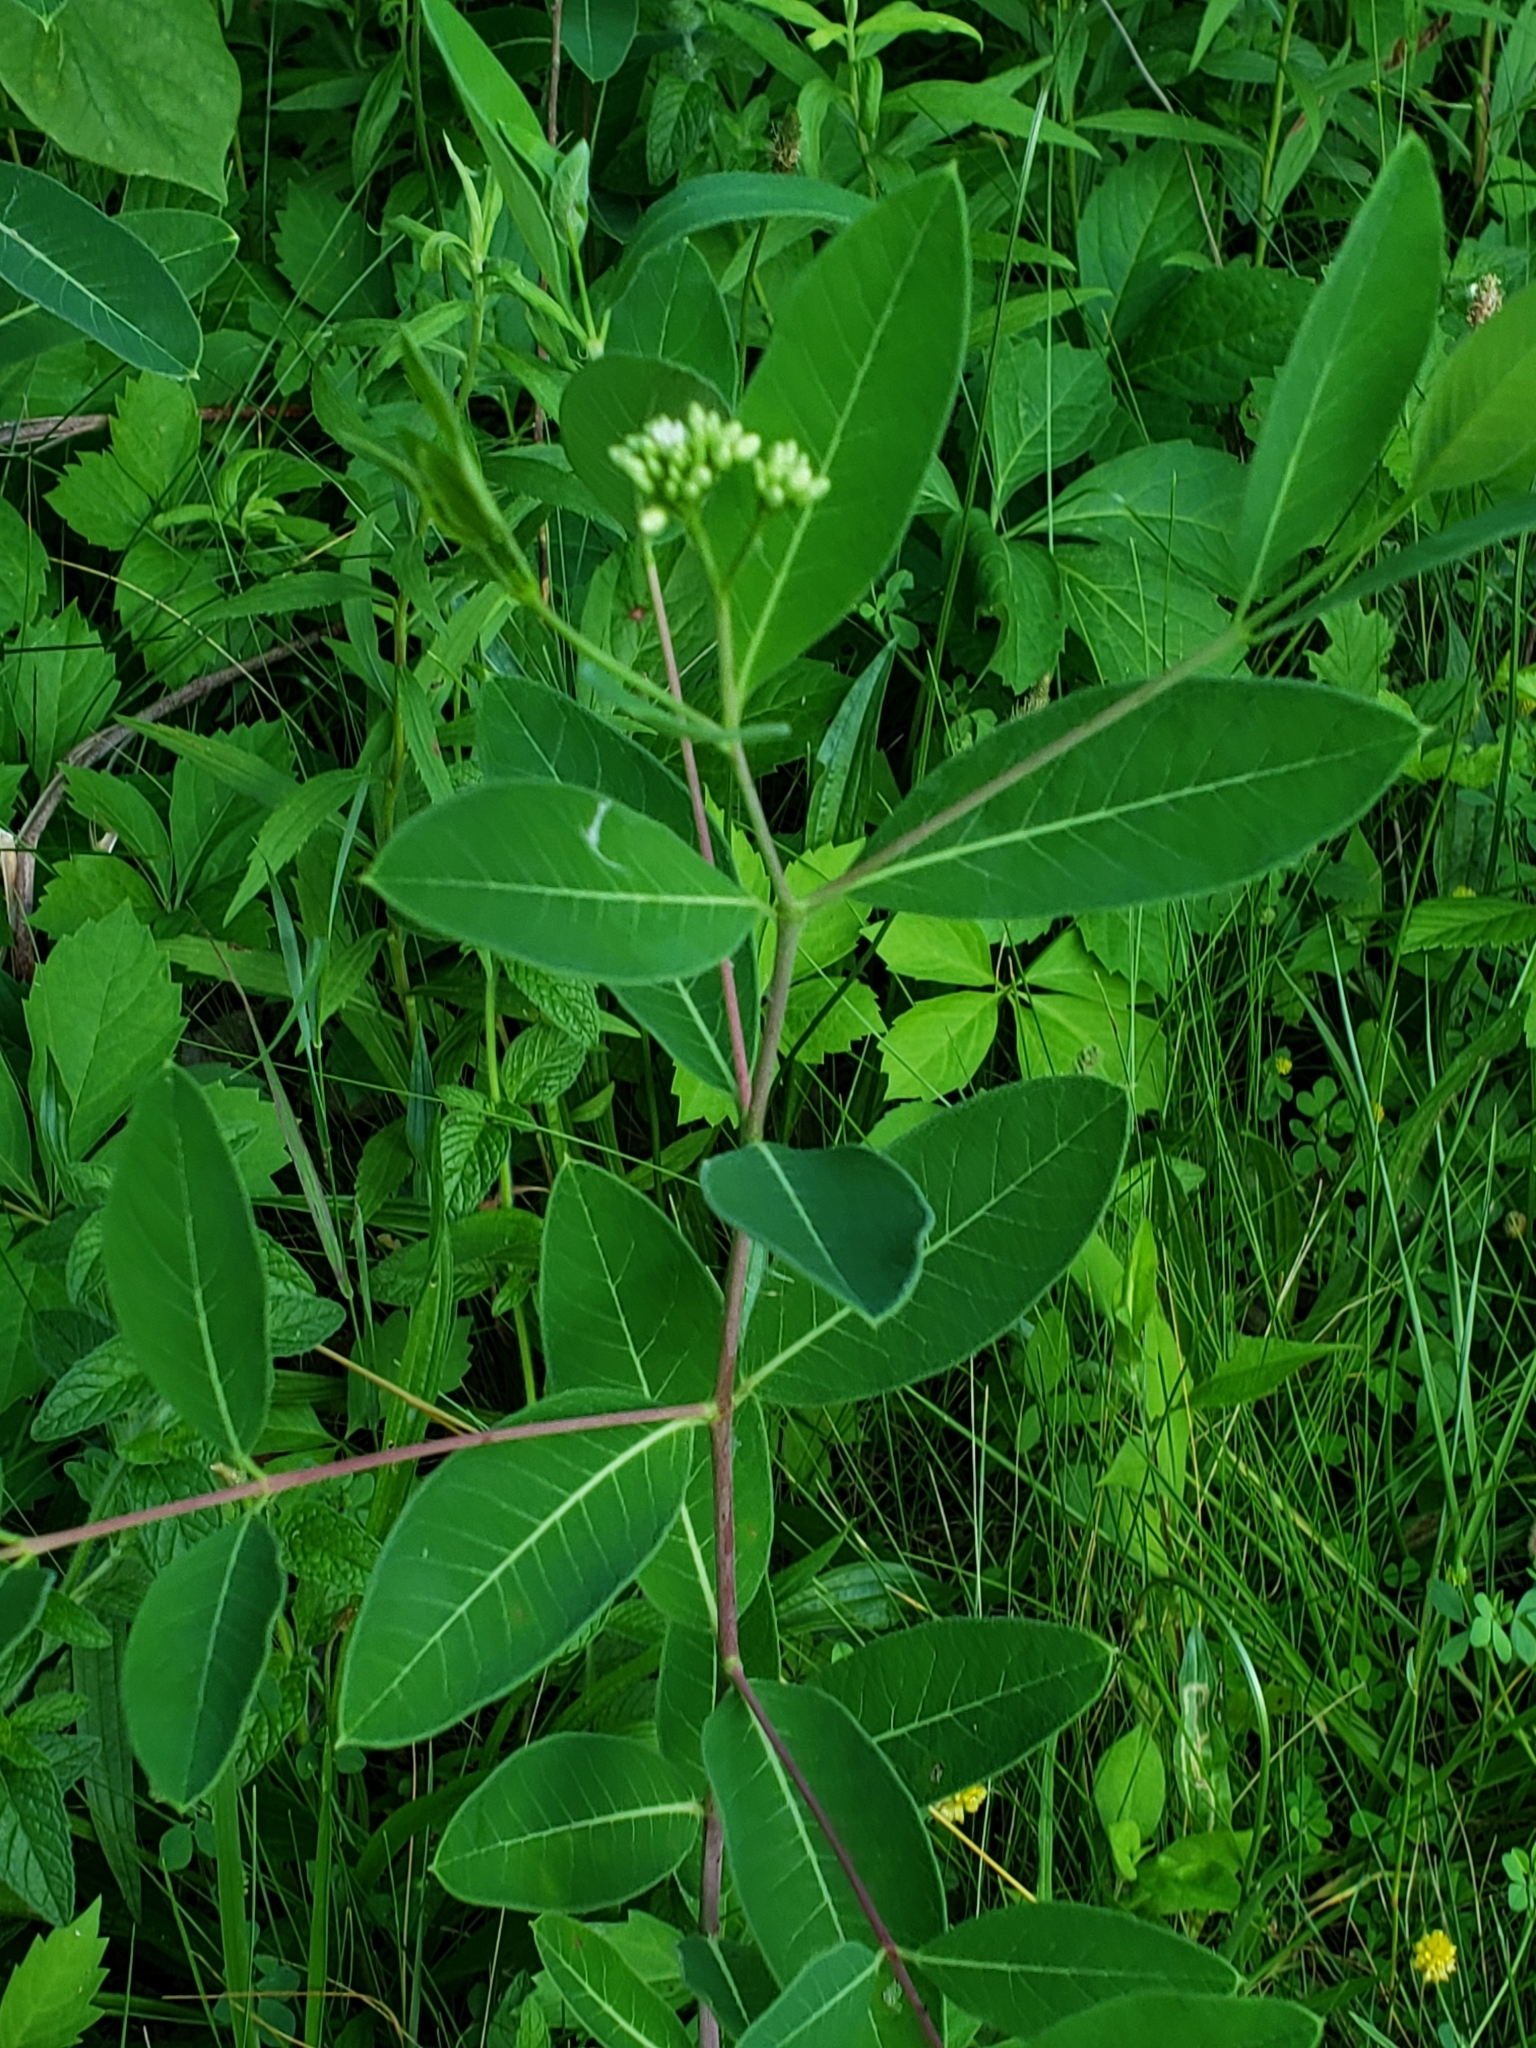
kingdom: Plantae
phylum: Tracheophyta
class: Magnoliopsida
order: Gentianales
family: Apocynaceae
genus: Apocynum
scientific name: Apocynum cannabinum
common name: Hemp dogbane
